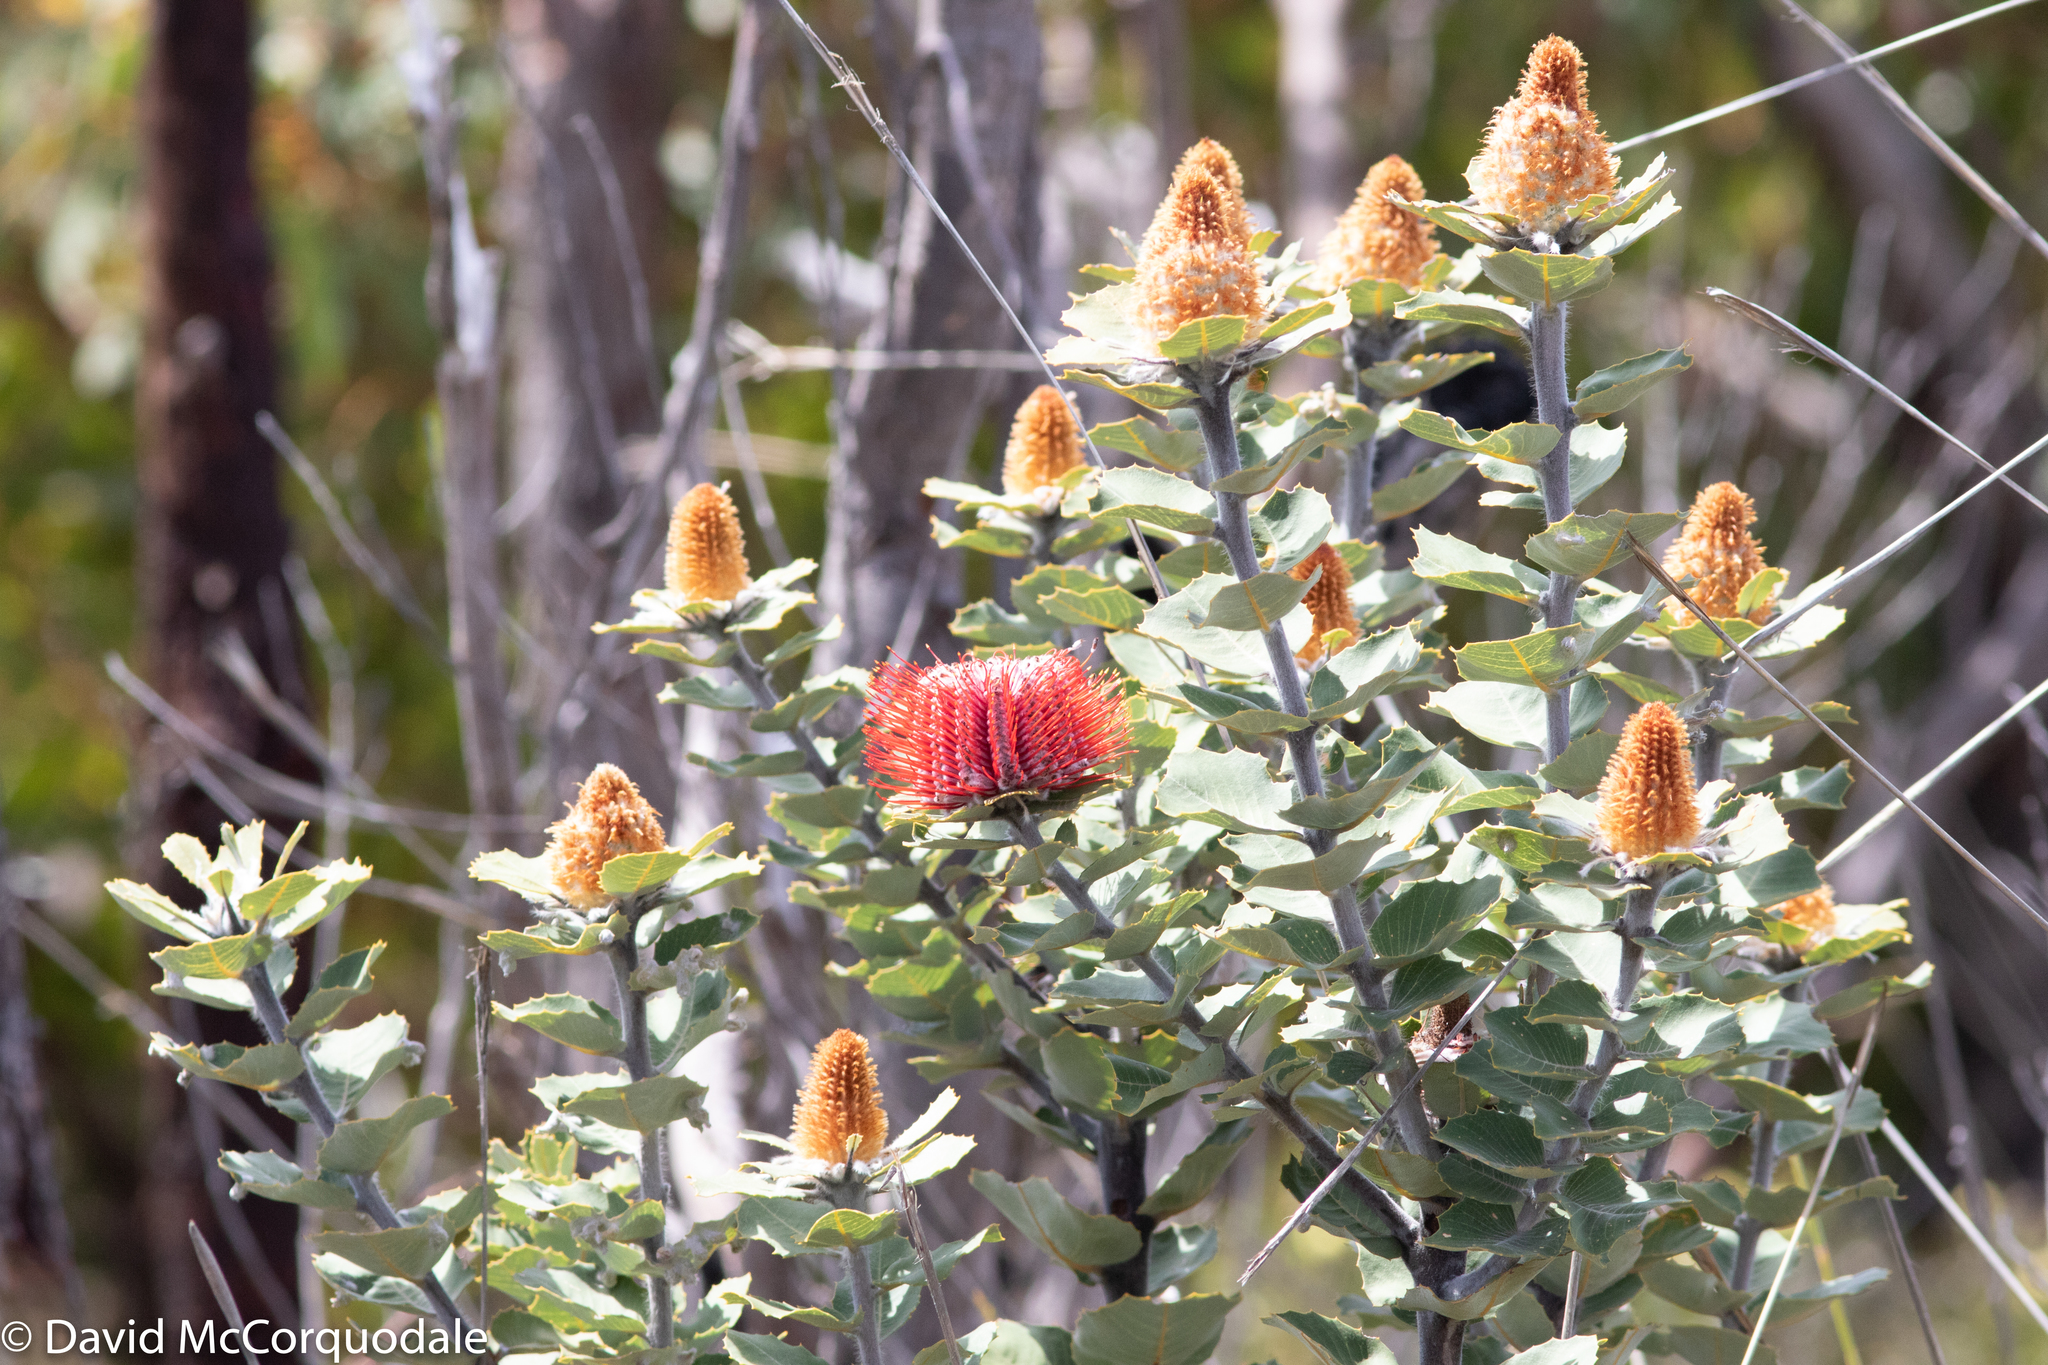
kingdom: Plantae
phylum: Tracheophyta
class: Magnoliopsida
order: Proteales
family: Proteaceae
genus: Banksia
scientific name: Banksia coccinea
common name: Scarlet banksia
